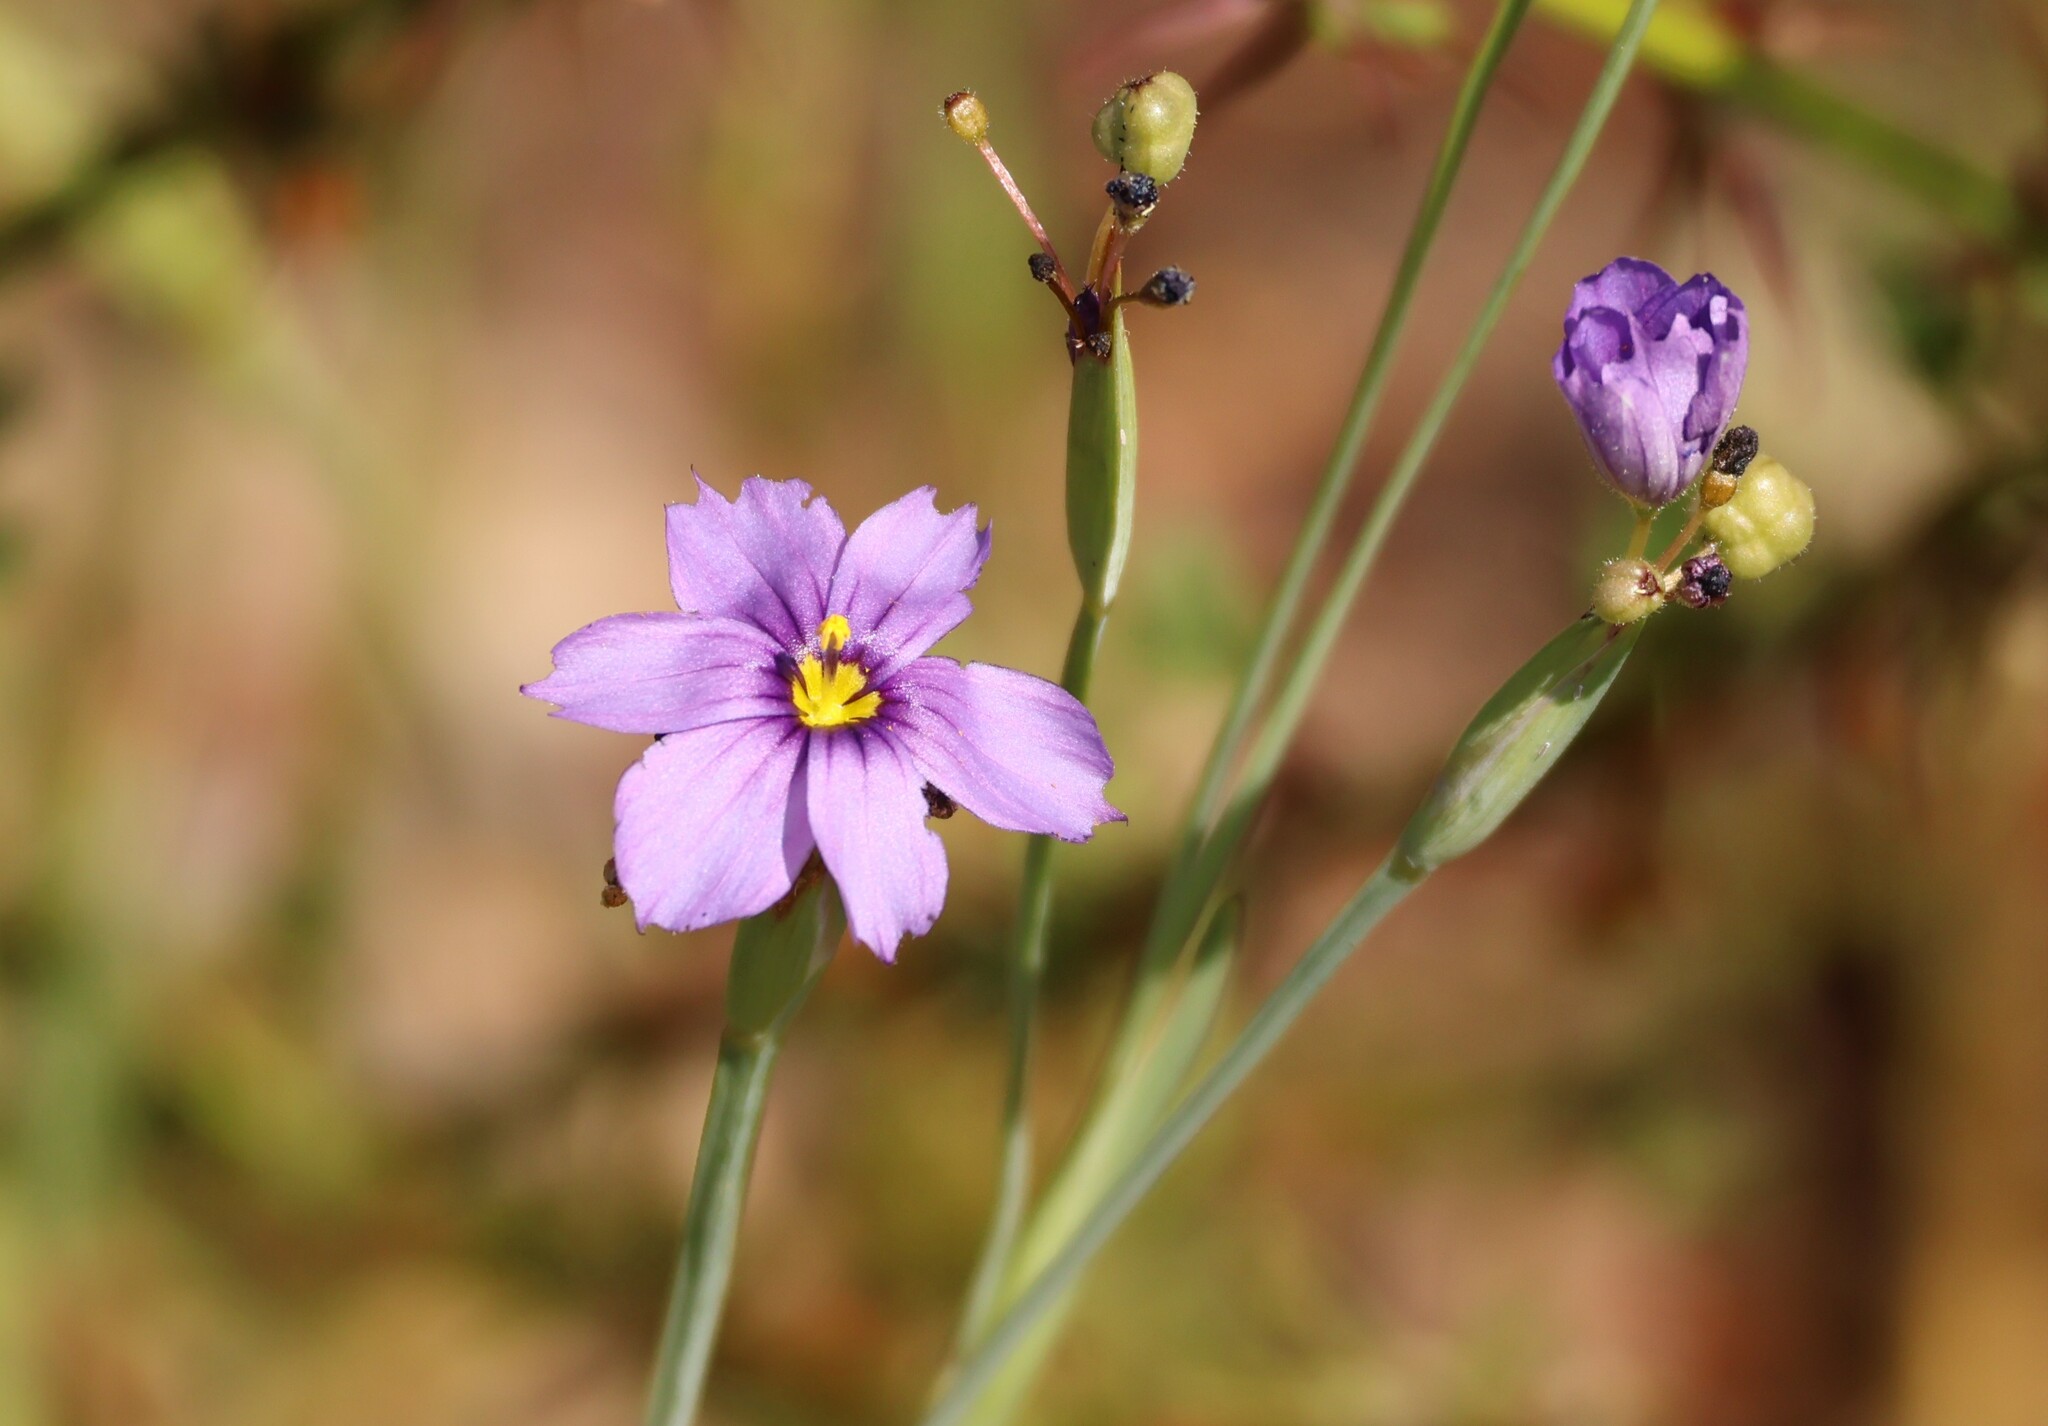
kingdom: Plantae
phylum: Tracheophyta
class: Liliopsida
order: Asparagales
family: Iridaceae
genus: Sisyrinchium
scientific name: Sisyrinchium bellum
